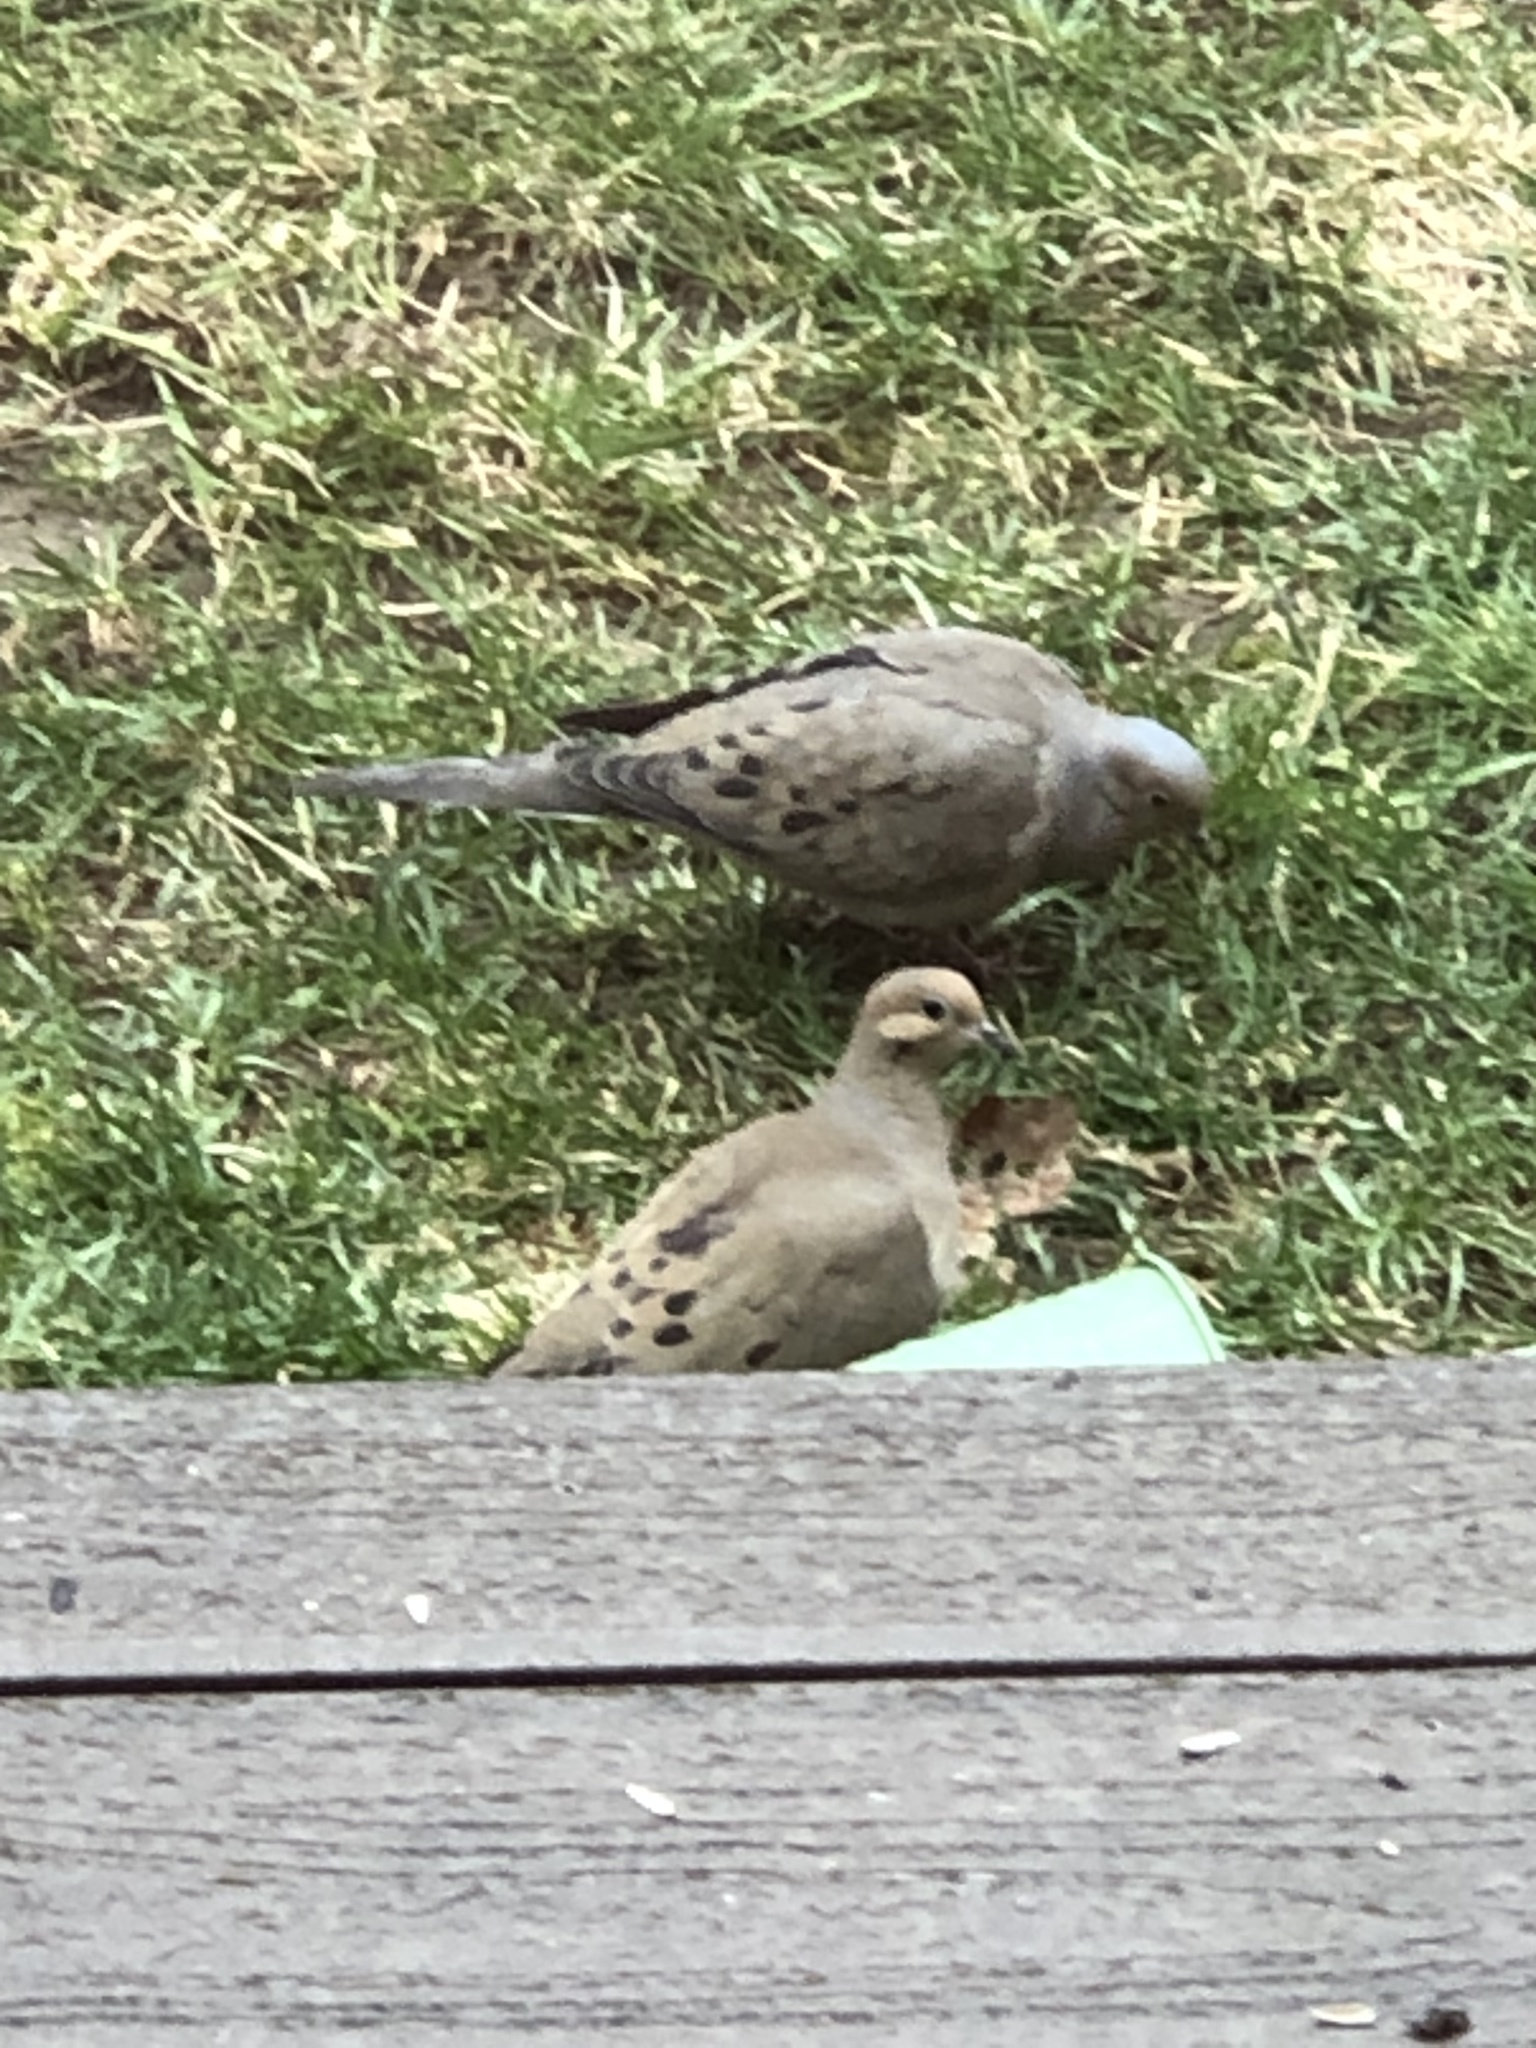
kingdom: Animalia
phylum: Chordata
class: Aves
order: Columbiformes
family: Columbidae
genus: Zenaida
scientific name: Zenaida macroura
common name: Mourning dove
